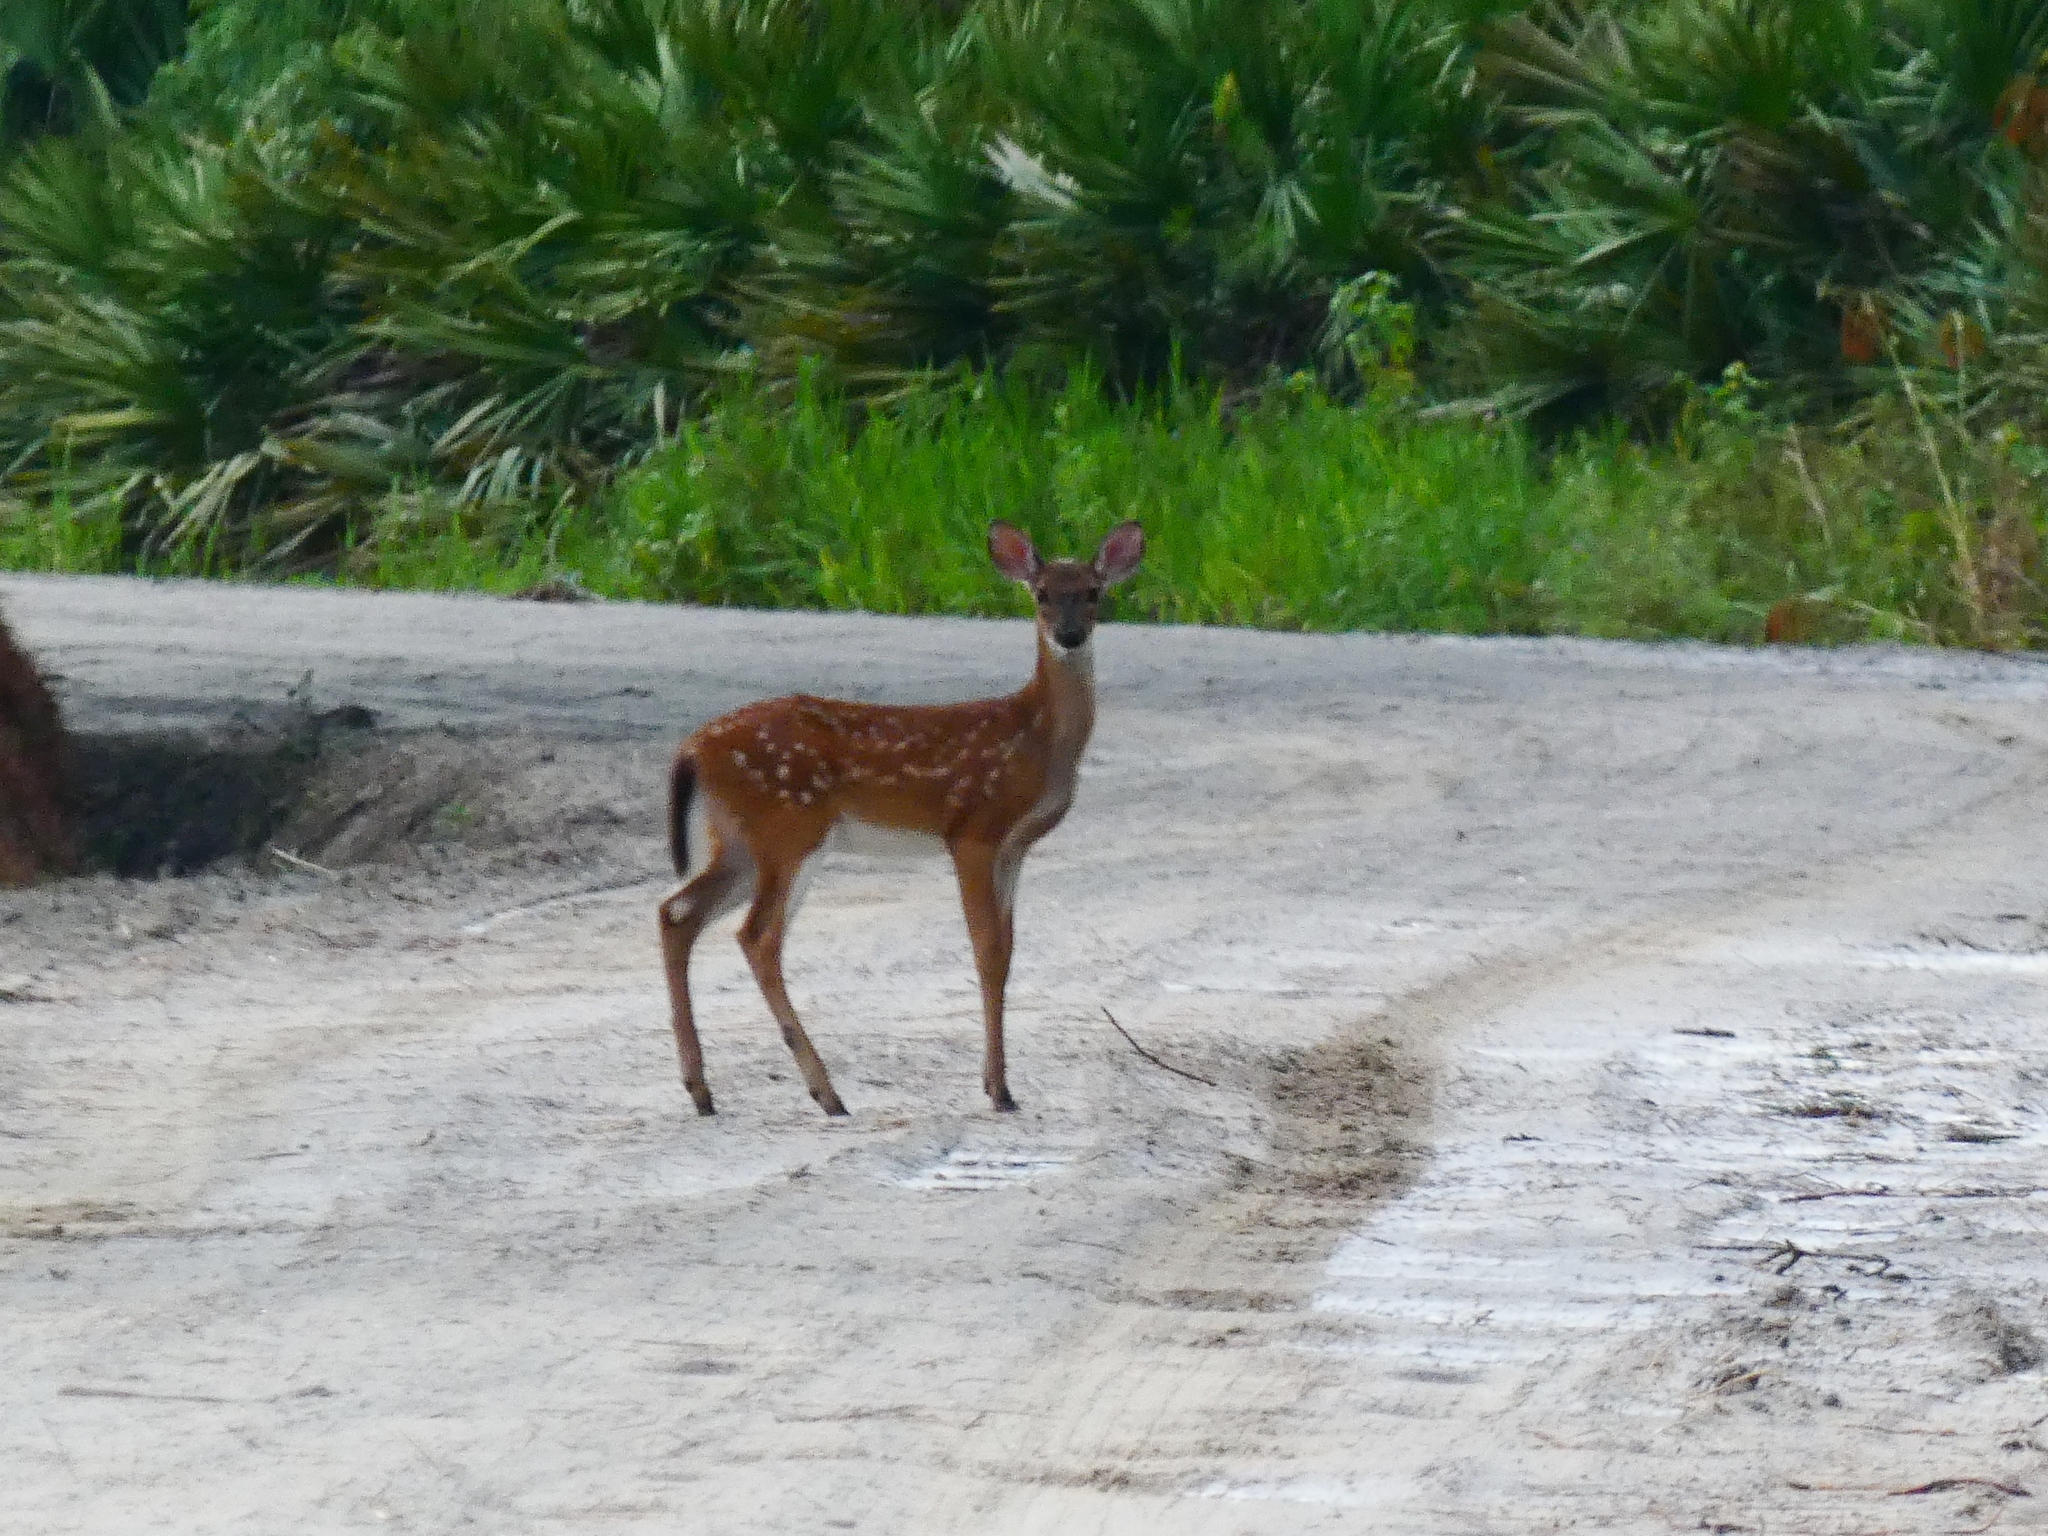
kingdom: Animalia
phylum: Chordata
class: Mammalia
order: Artiodactyla
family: Cervidae
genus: Odocoileus
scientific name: Odocoileus virginianus
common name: White-tailed deer
